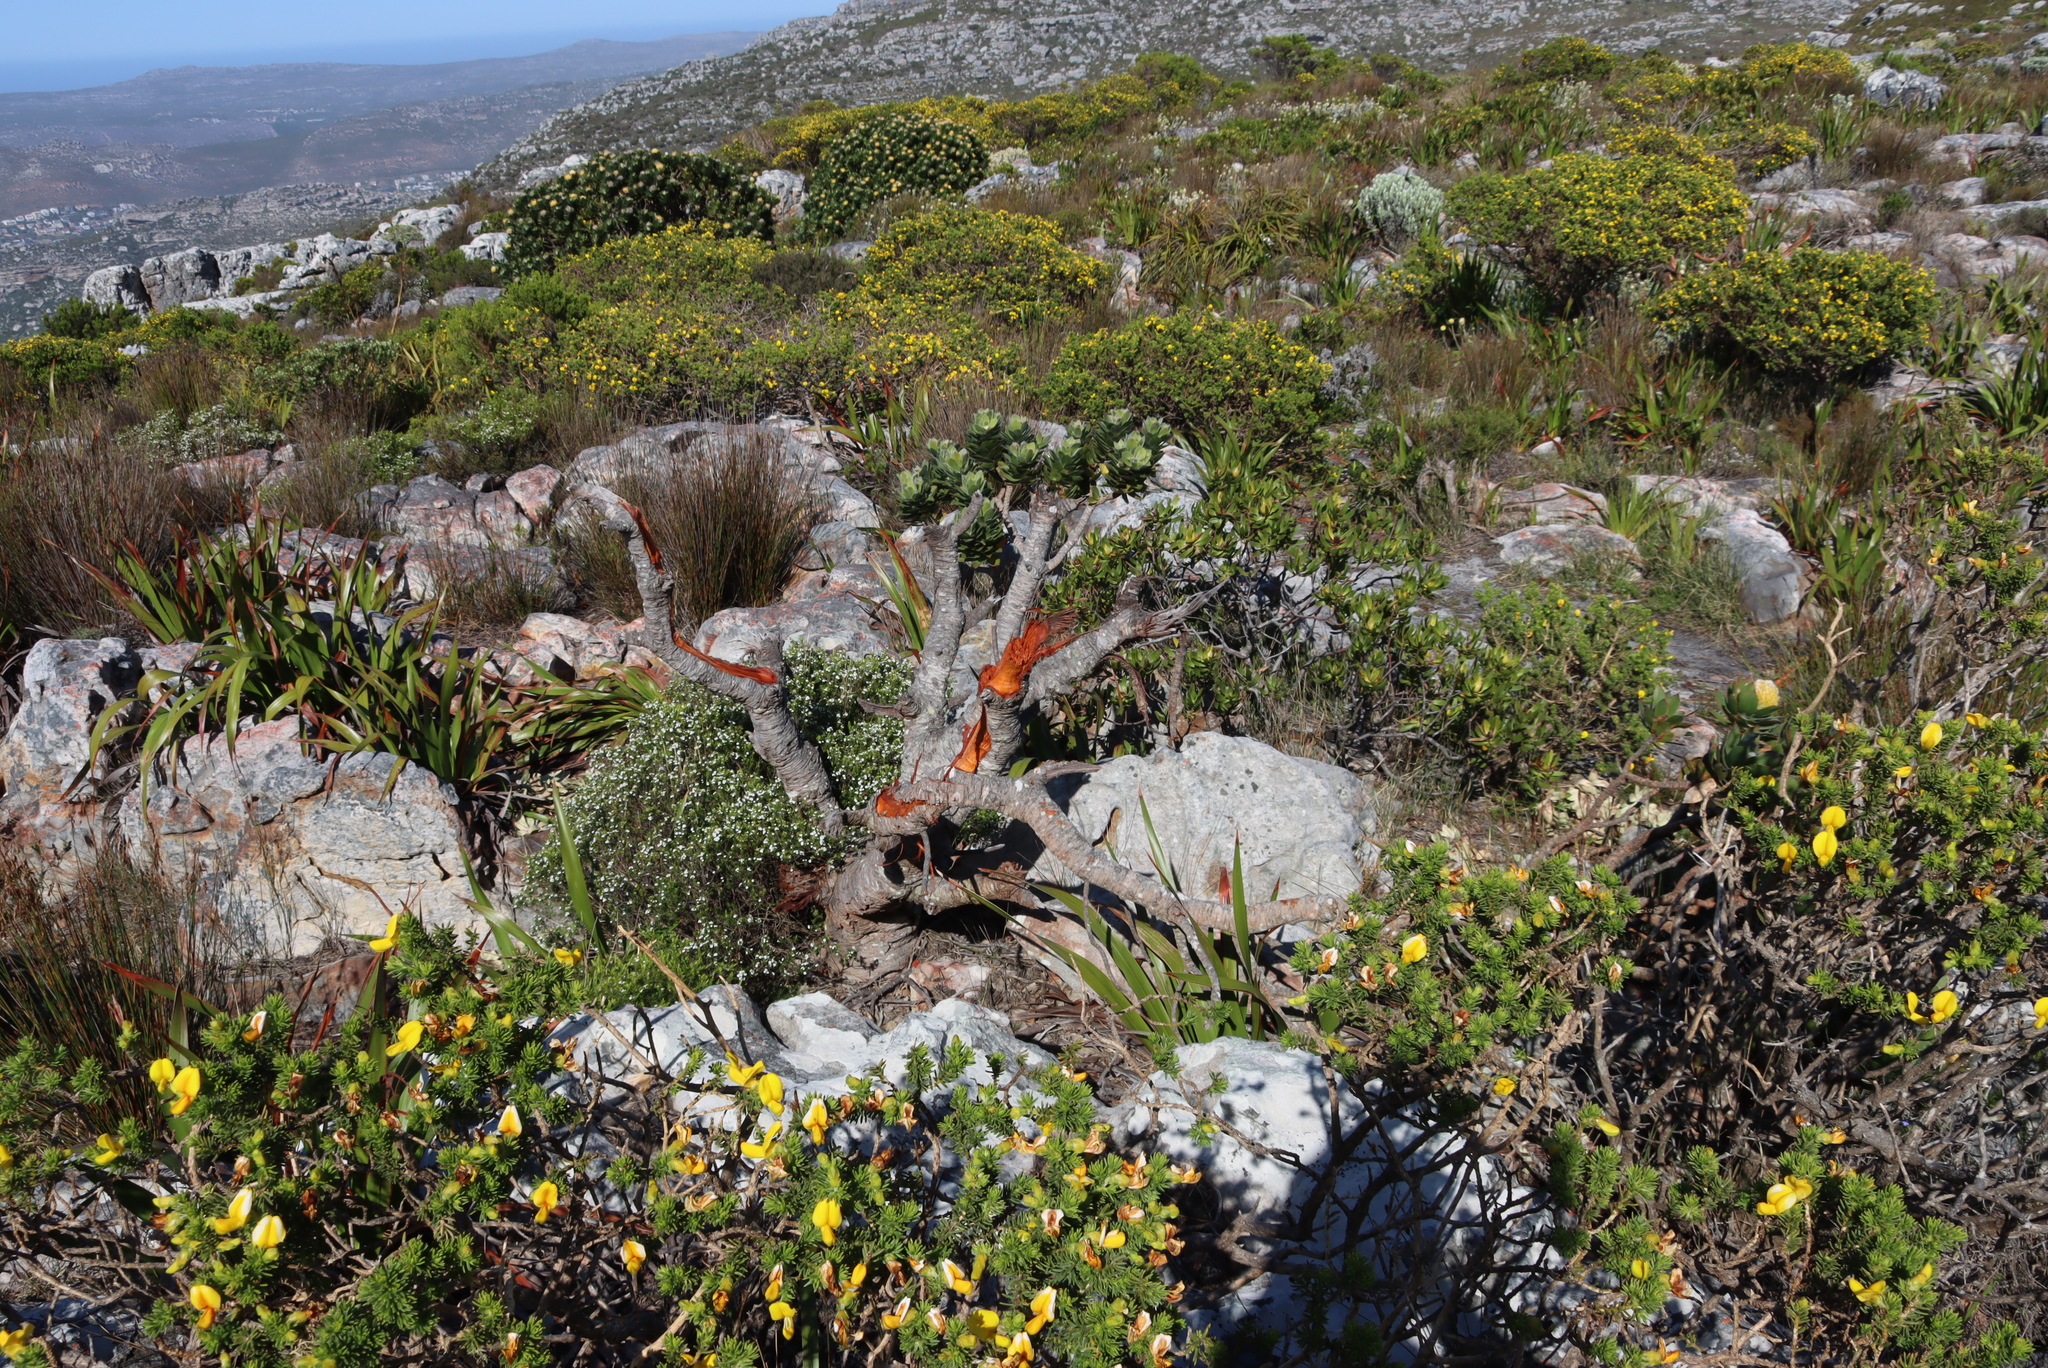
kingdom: Plantae
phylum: Tracheophyta
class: Magnoliopsida
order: Fabales
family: Fabaceae
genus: Aspalathus
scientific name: Aspalathus capensis
